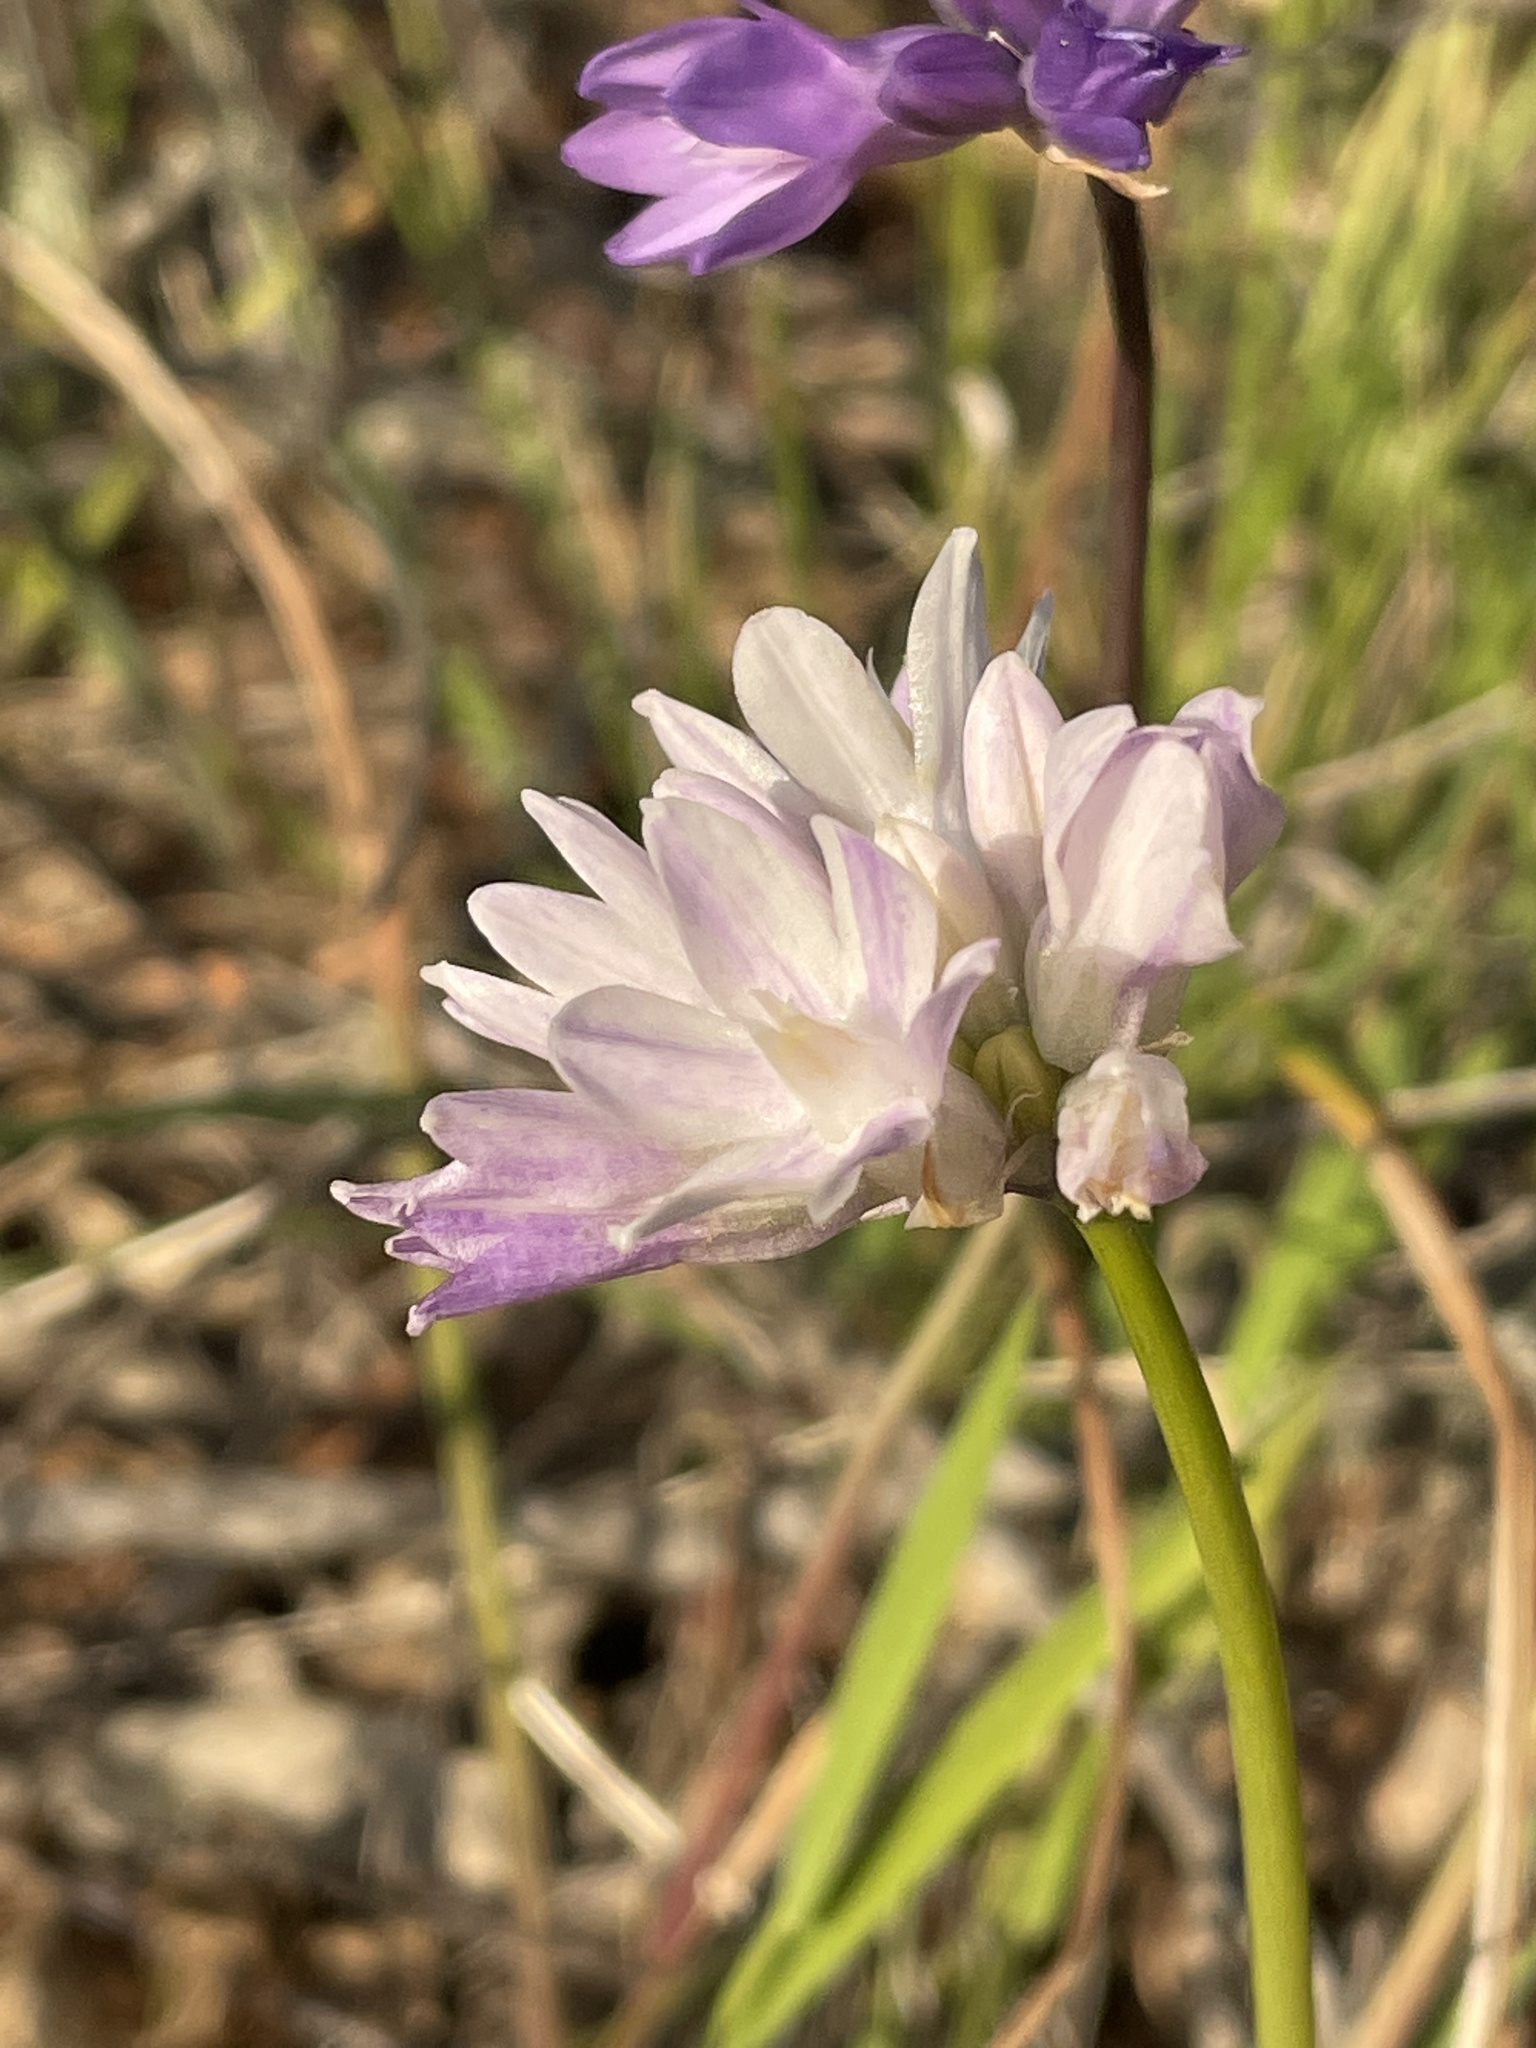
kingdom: Plantae
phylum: Tracheophyta
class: Liliopsida
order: Asparagales
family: Asparagaceae
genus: Dipterostemon
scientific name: Dipterostemon capitatus
